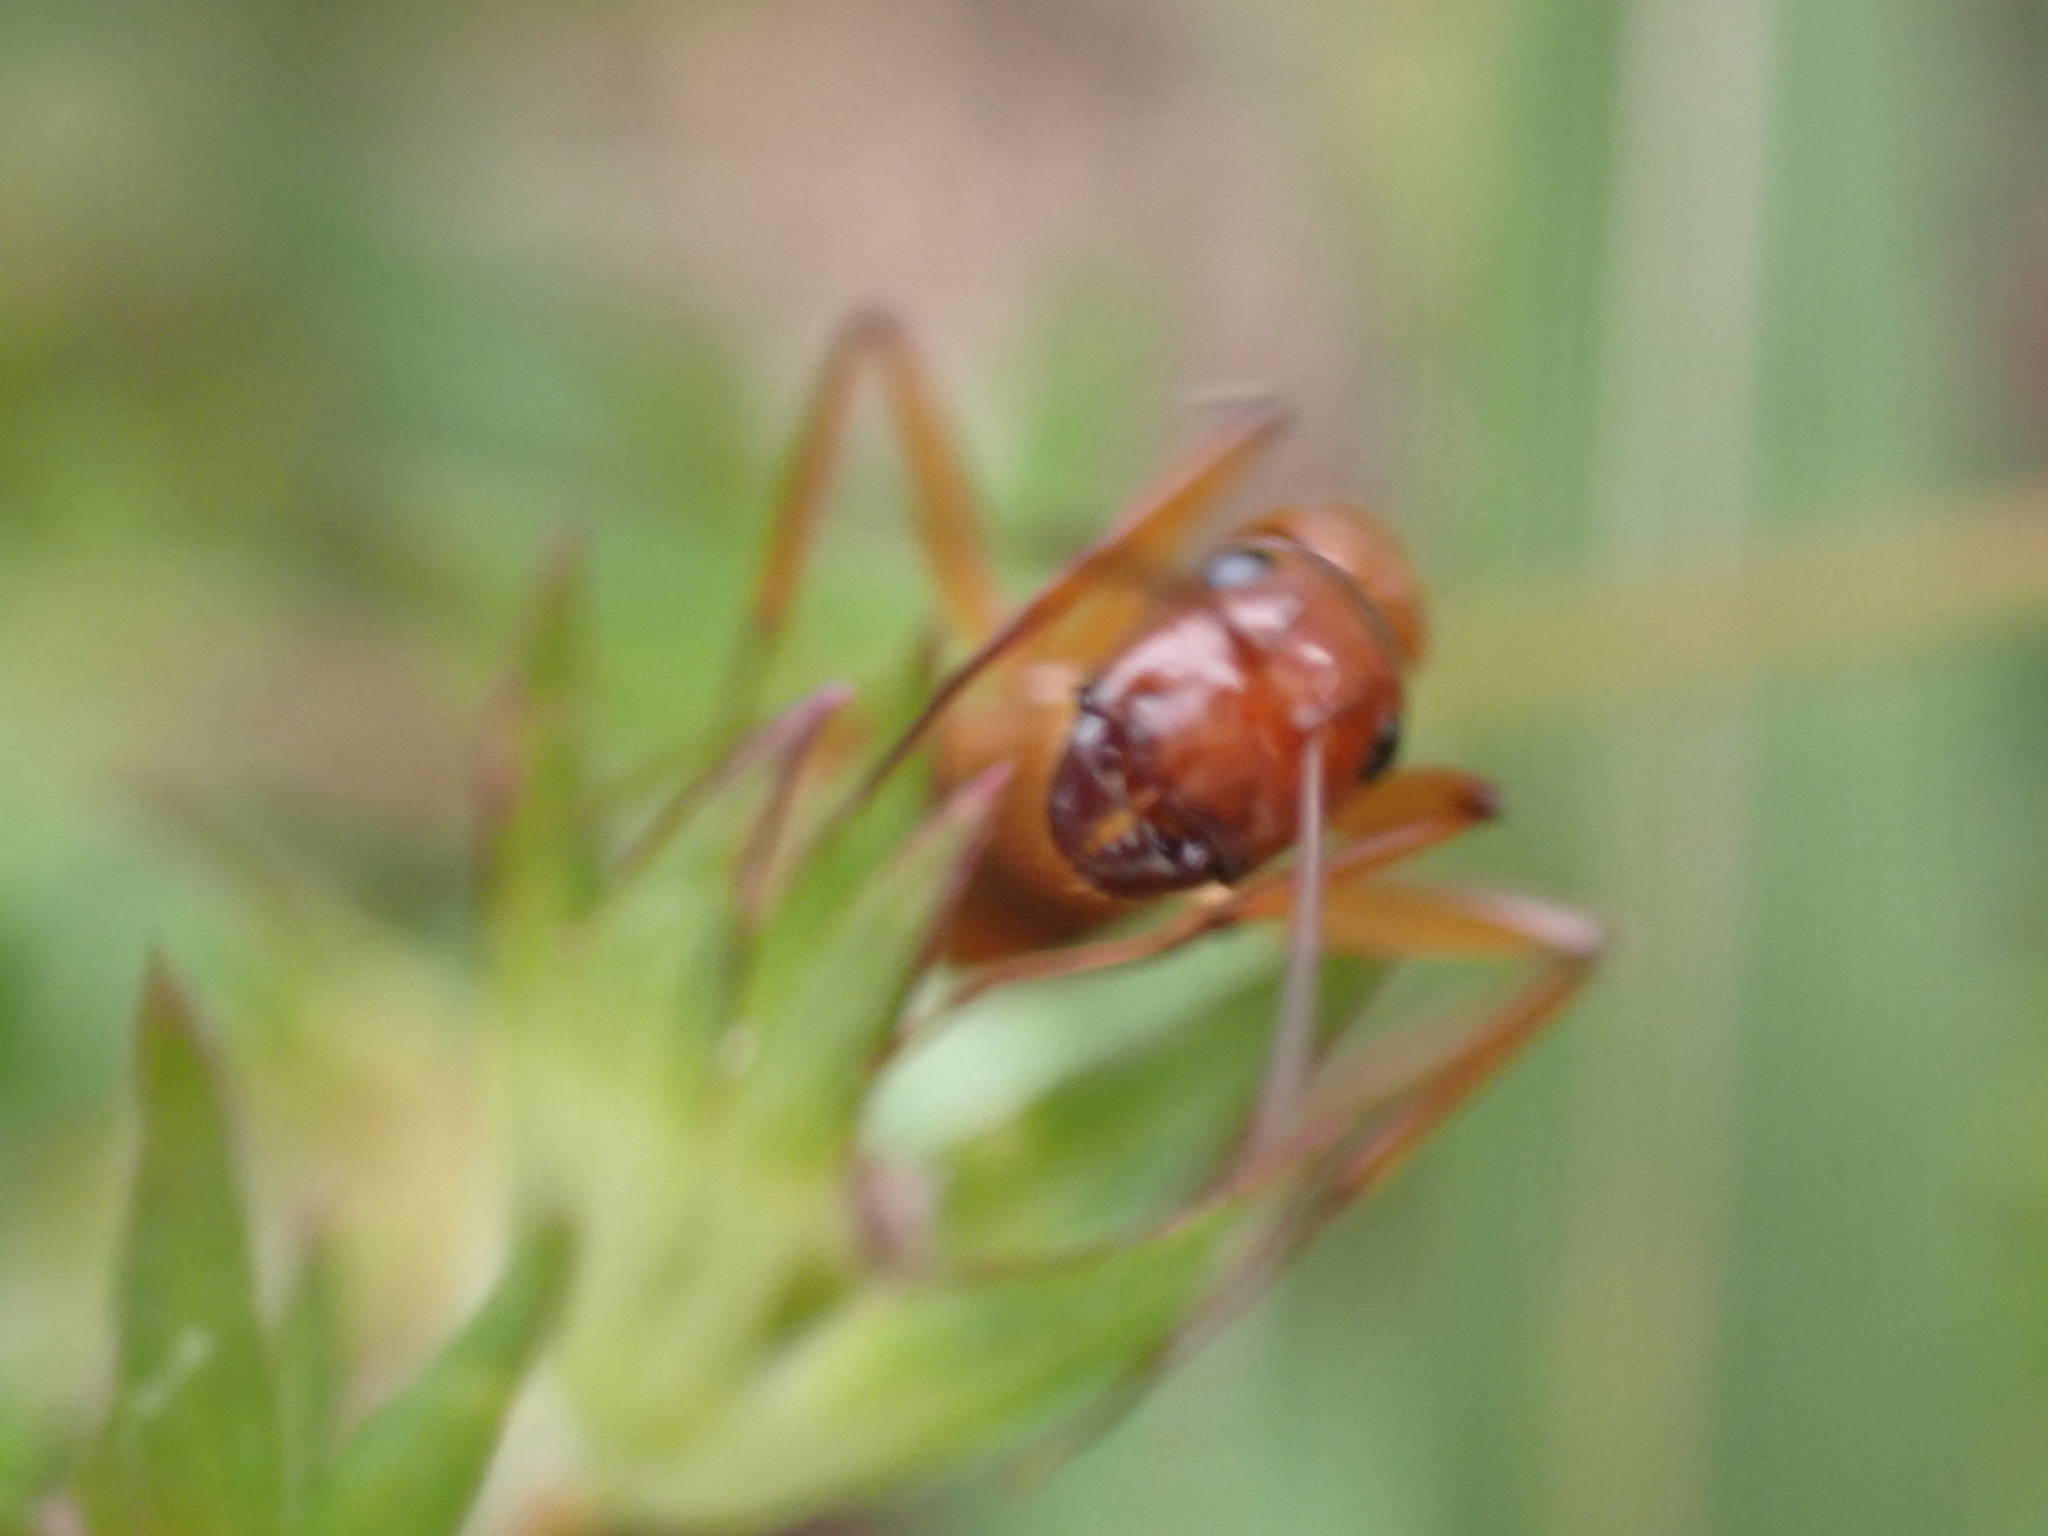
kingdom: Animalia
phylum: Arthropoda
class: Insecta
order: Hymenoptera
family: Formicidae
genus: Camponotus
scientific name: Camponotus castaneus
